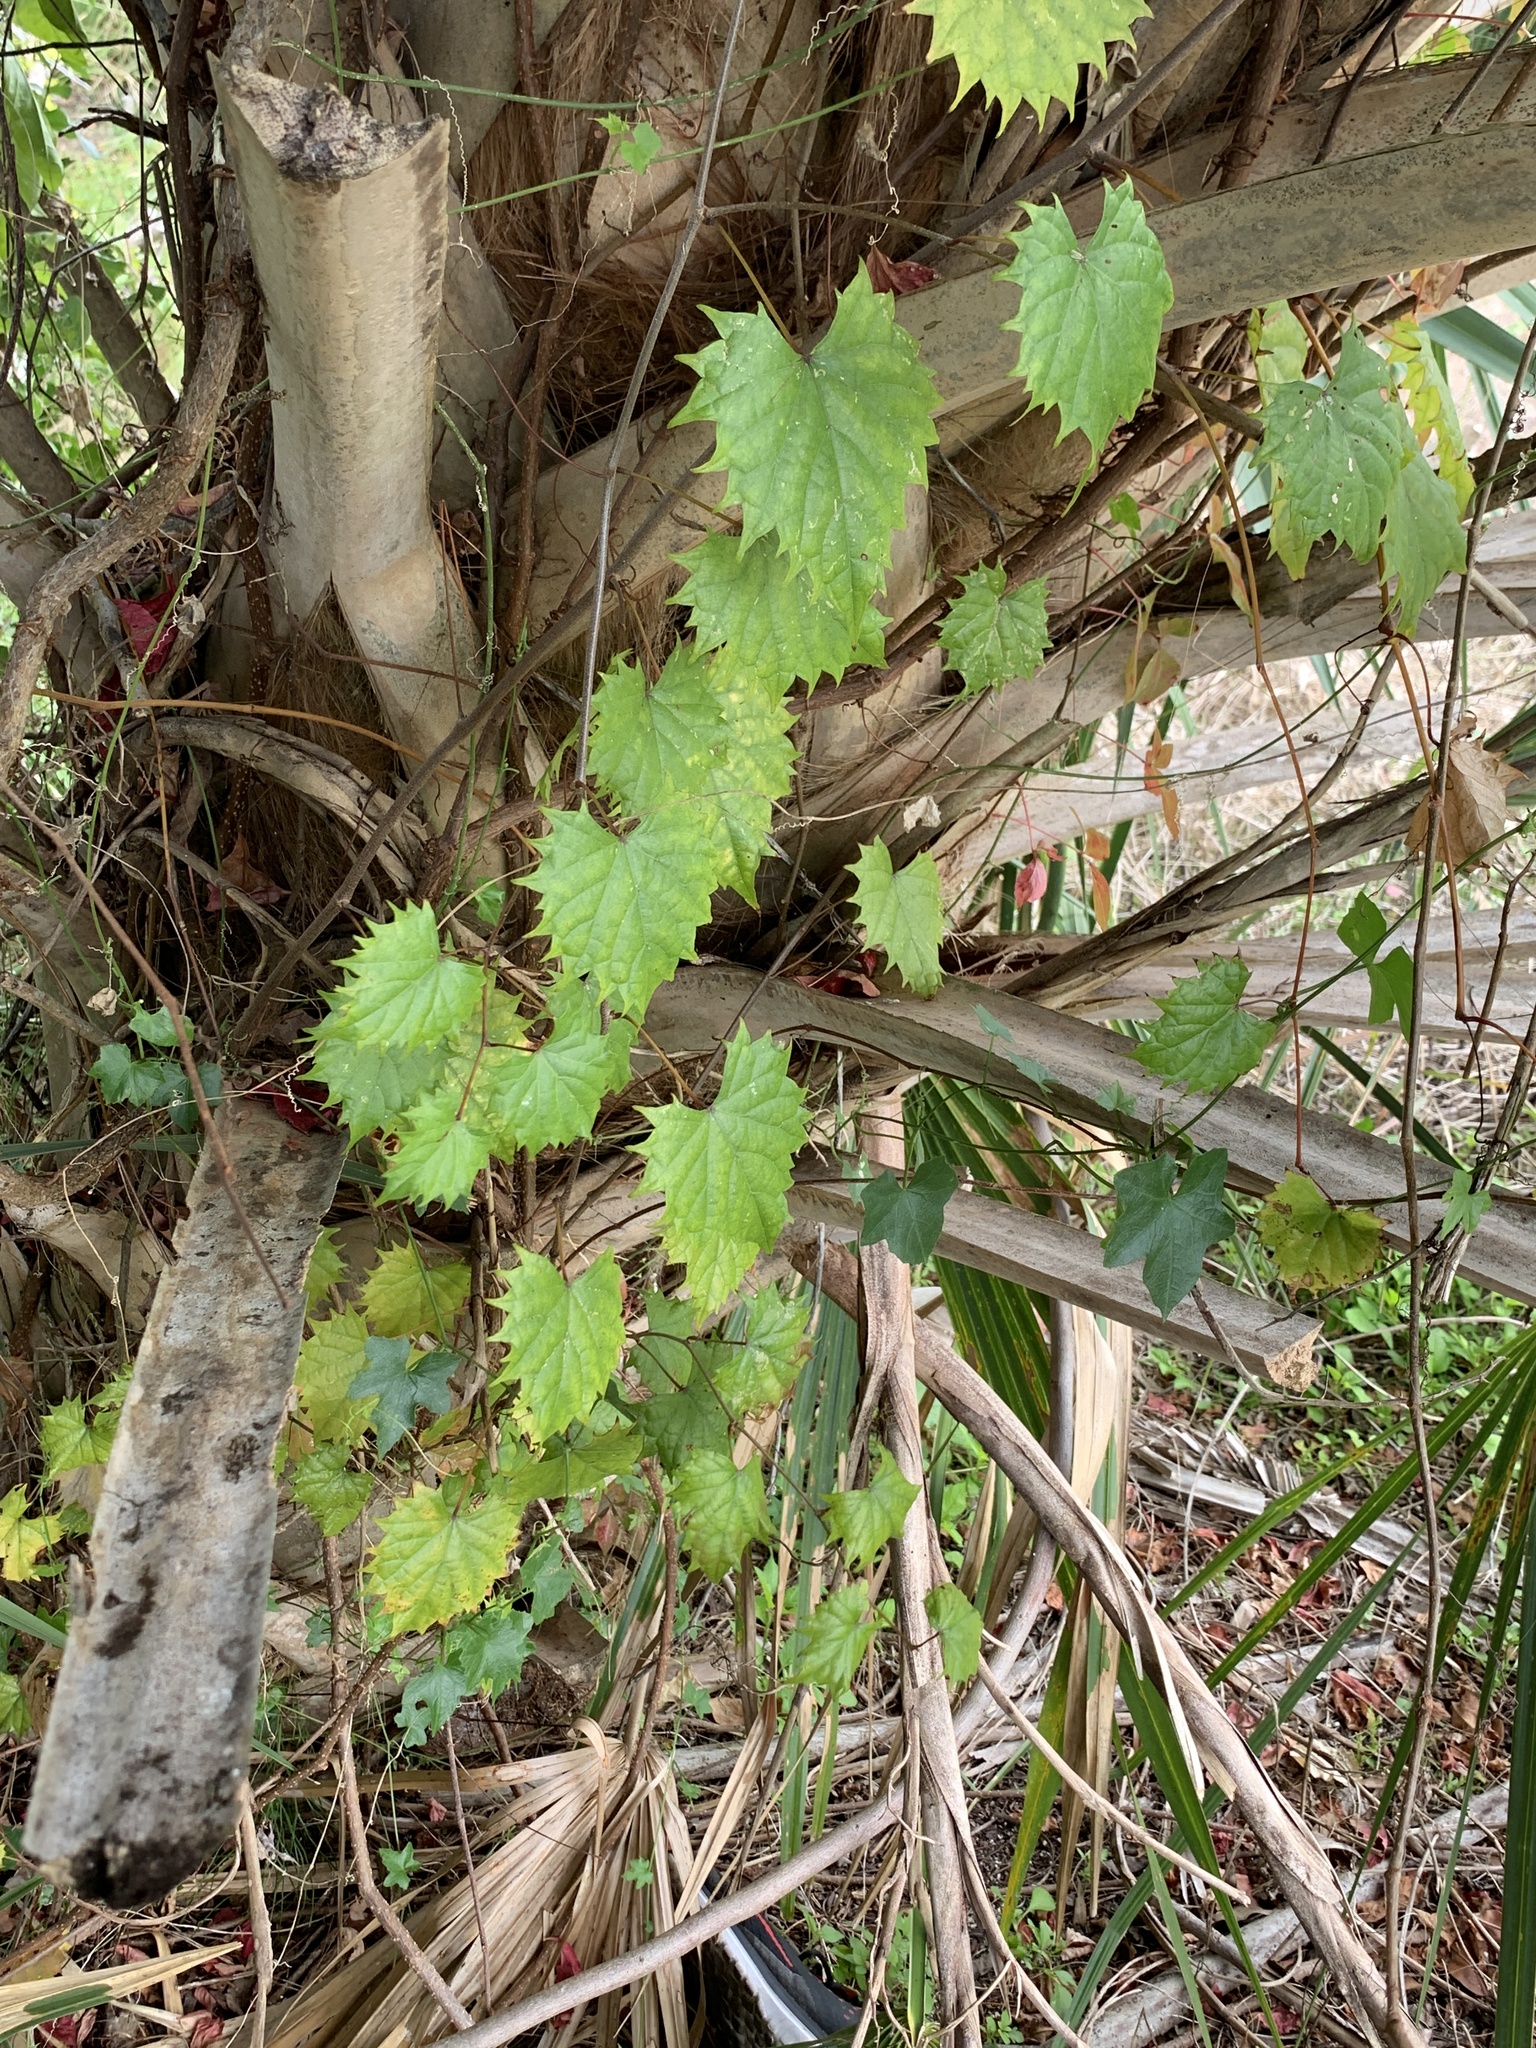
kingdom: Plantae
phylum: Tracheophyta
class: Magnoliopsida
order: Vitales
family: Vitaceae
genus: Vitis
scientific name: Vitis rotundifolia
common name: Muscadine grape
